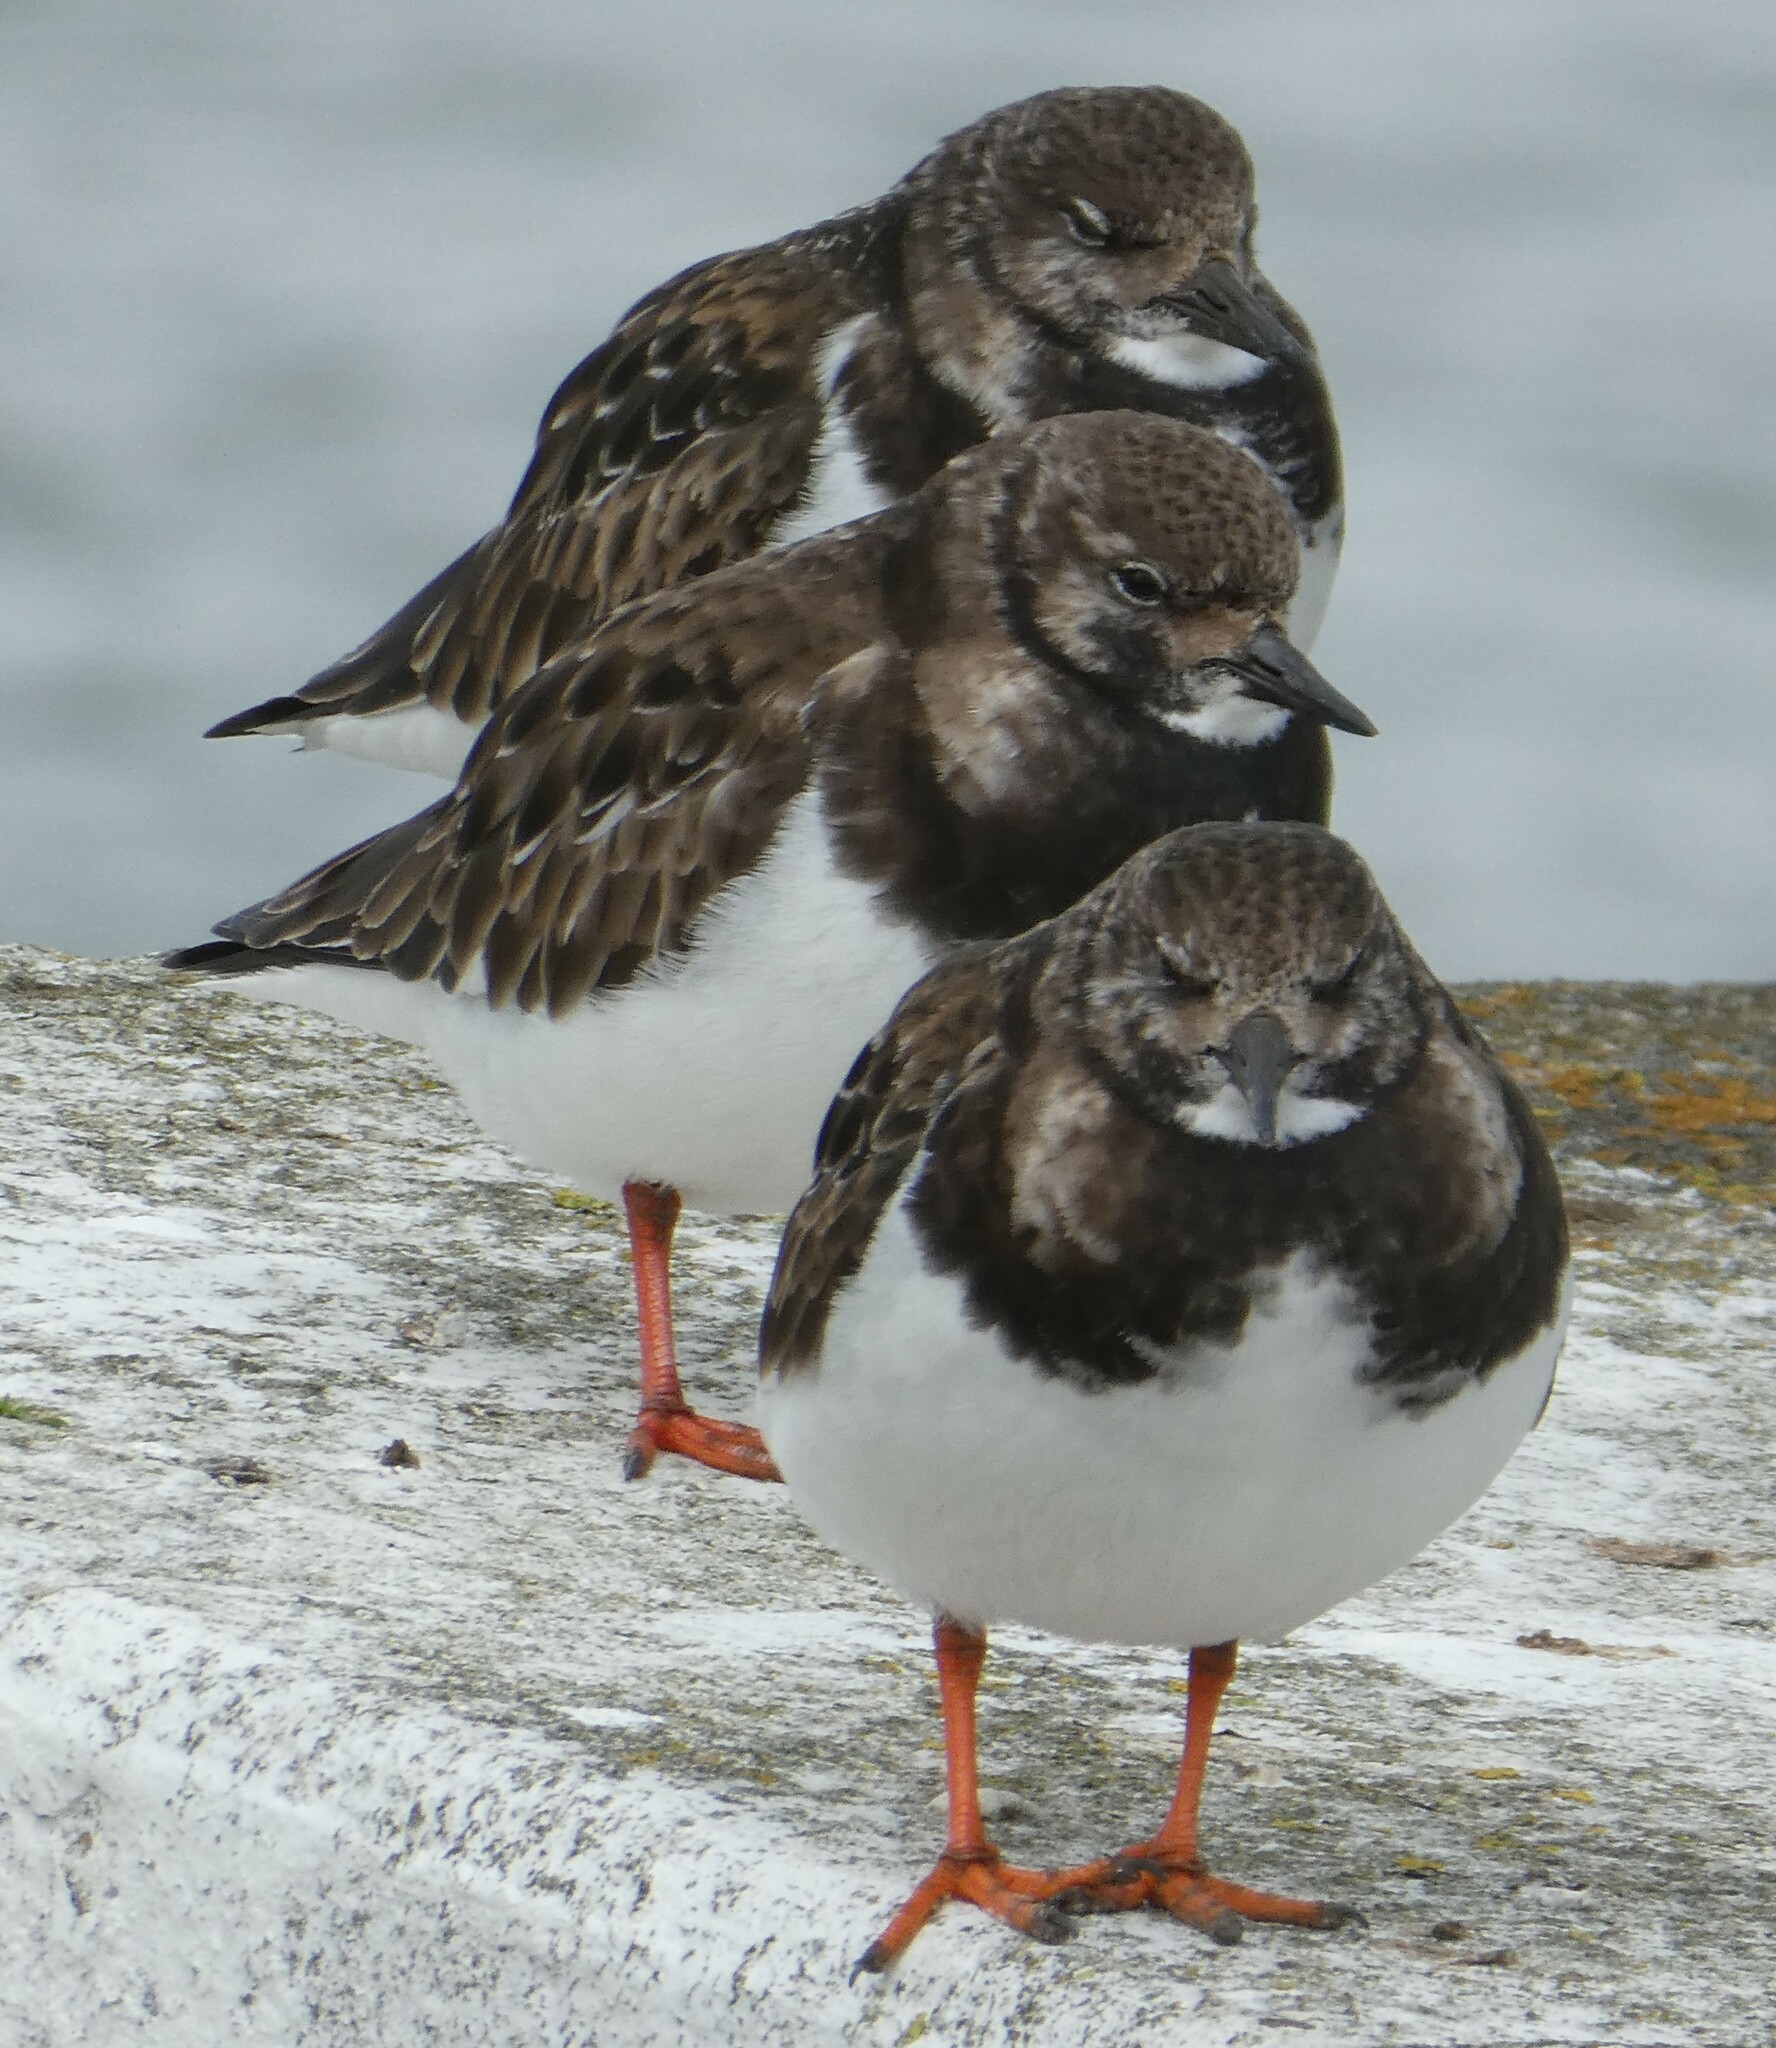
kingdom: Animalia
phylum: Chordata
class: Aves
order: Charadriiformes
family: Scolopacidae
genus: Arenaria
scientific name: Arenaria interpres
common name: Ruddy turnstone
